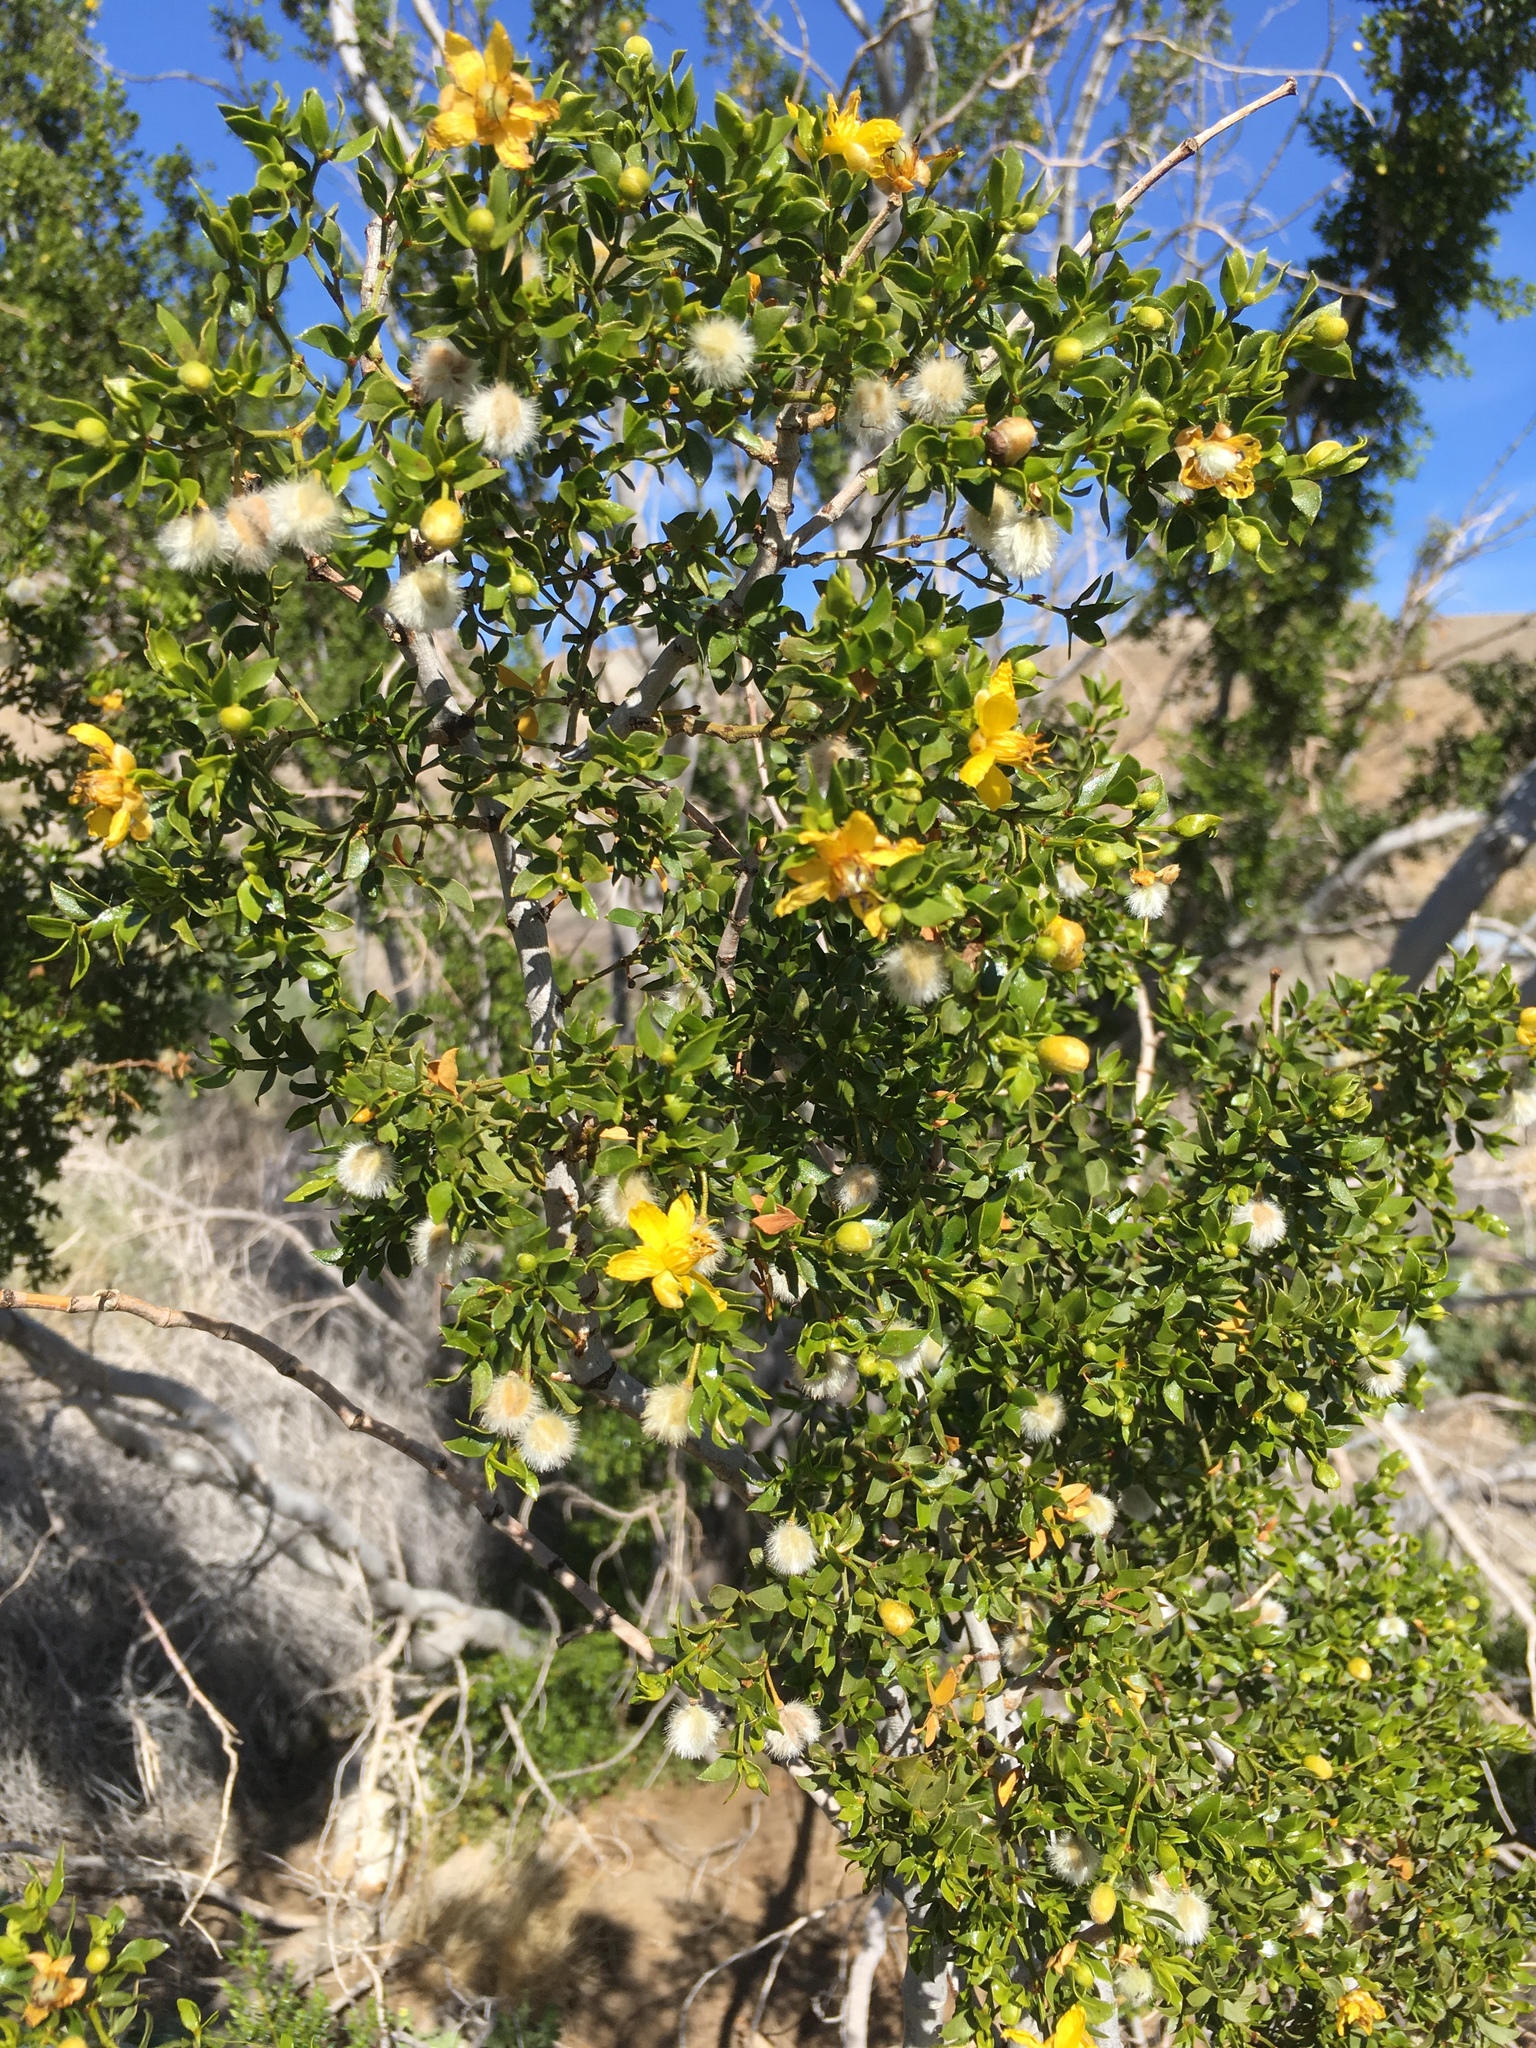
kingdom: Plantae
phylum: Tracheophyta
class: Magnoliopsida
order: Zygophyllales
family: Zygophyllaceae
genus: Larrea
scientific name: Larrea tridentata
